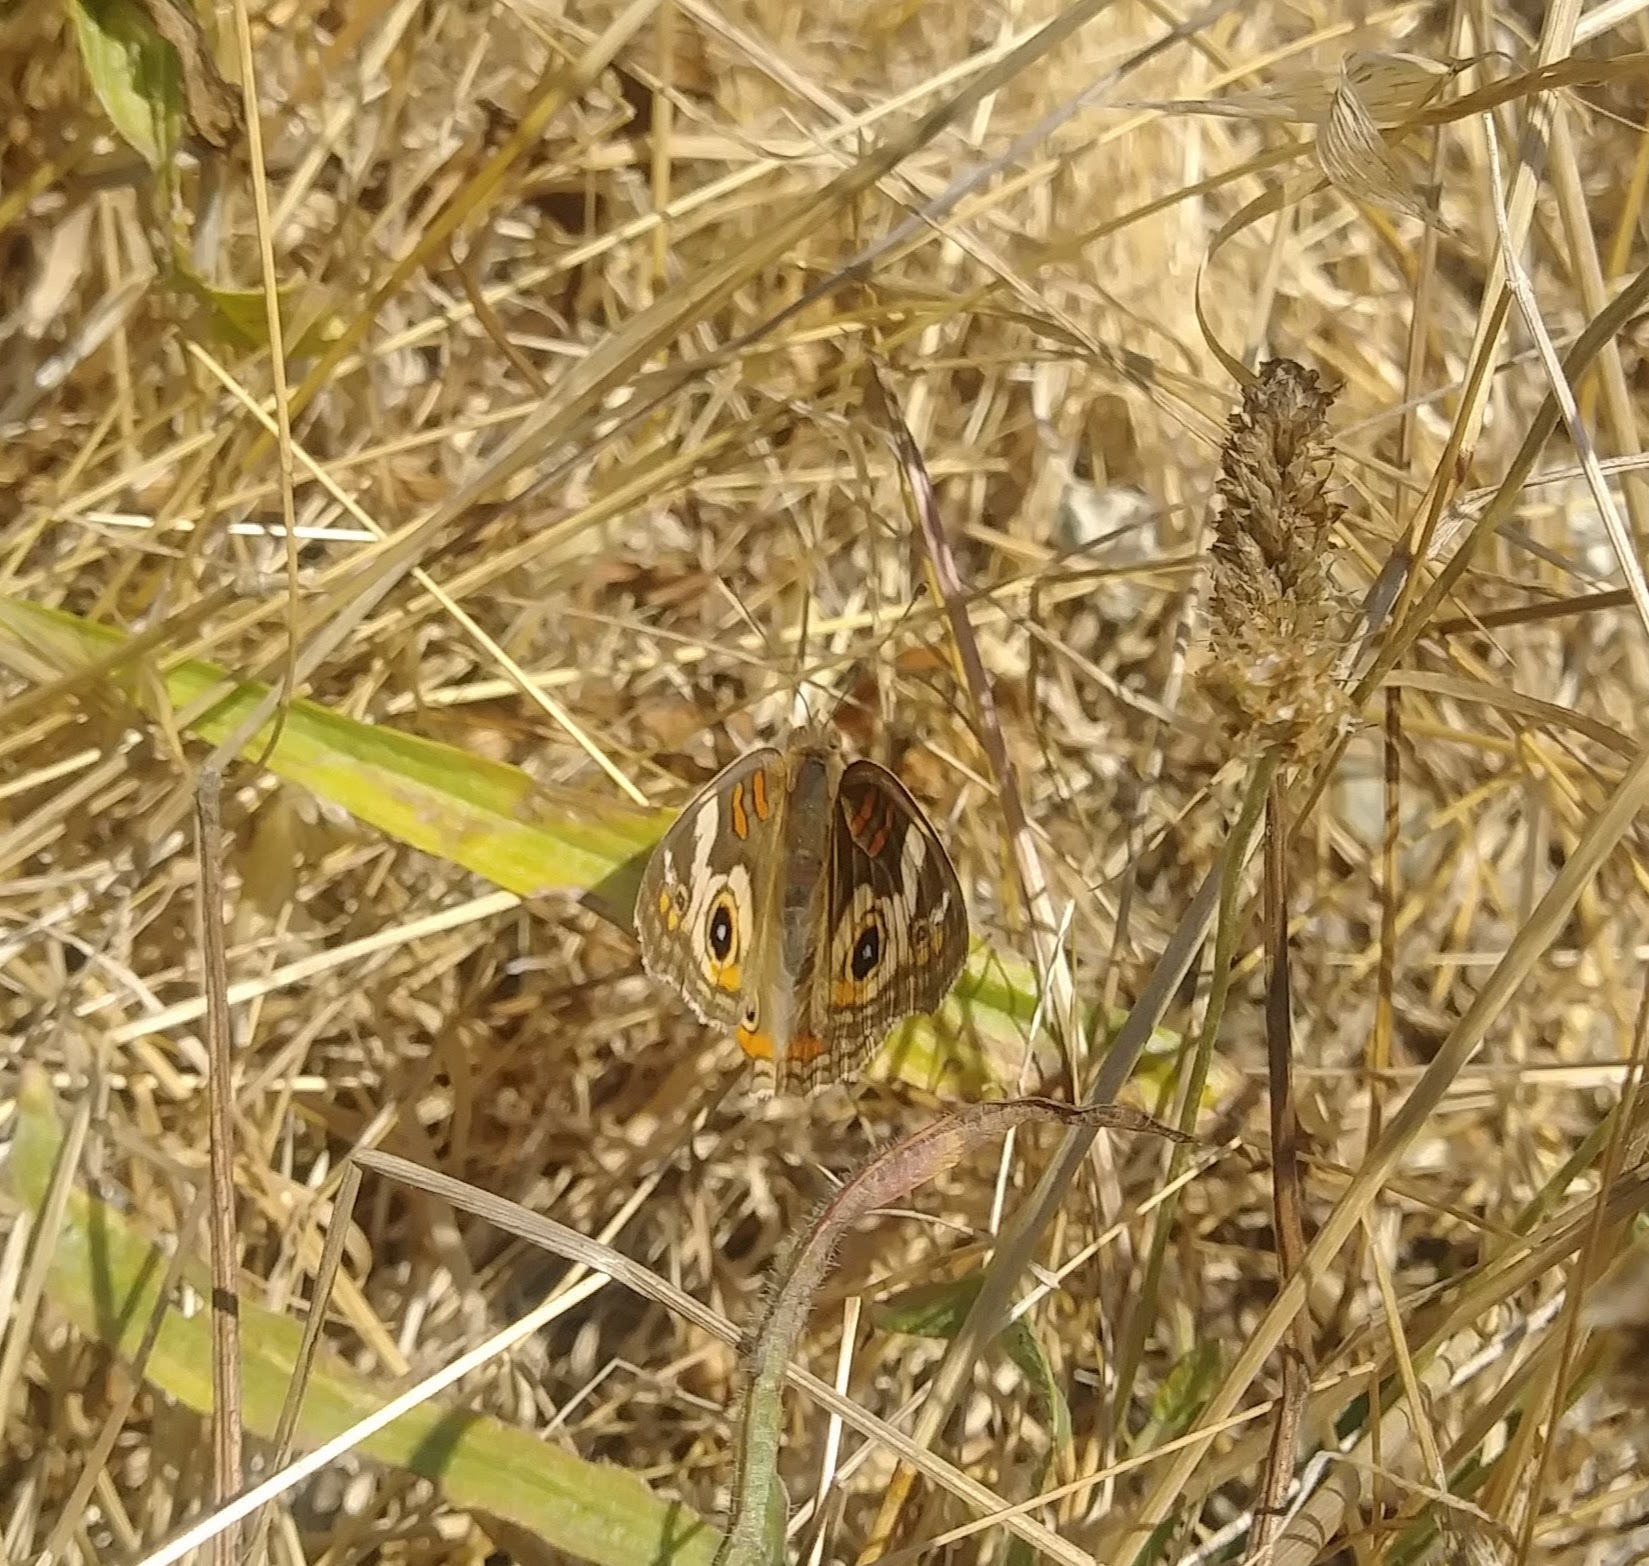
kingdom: Animalia
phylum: Arthropoda
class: Insecta
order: Lepidoptera
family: Nymphalidae
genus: Junonia
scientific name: Junonia grisea
